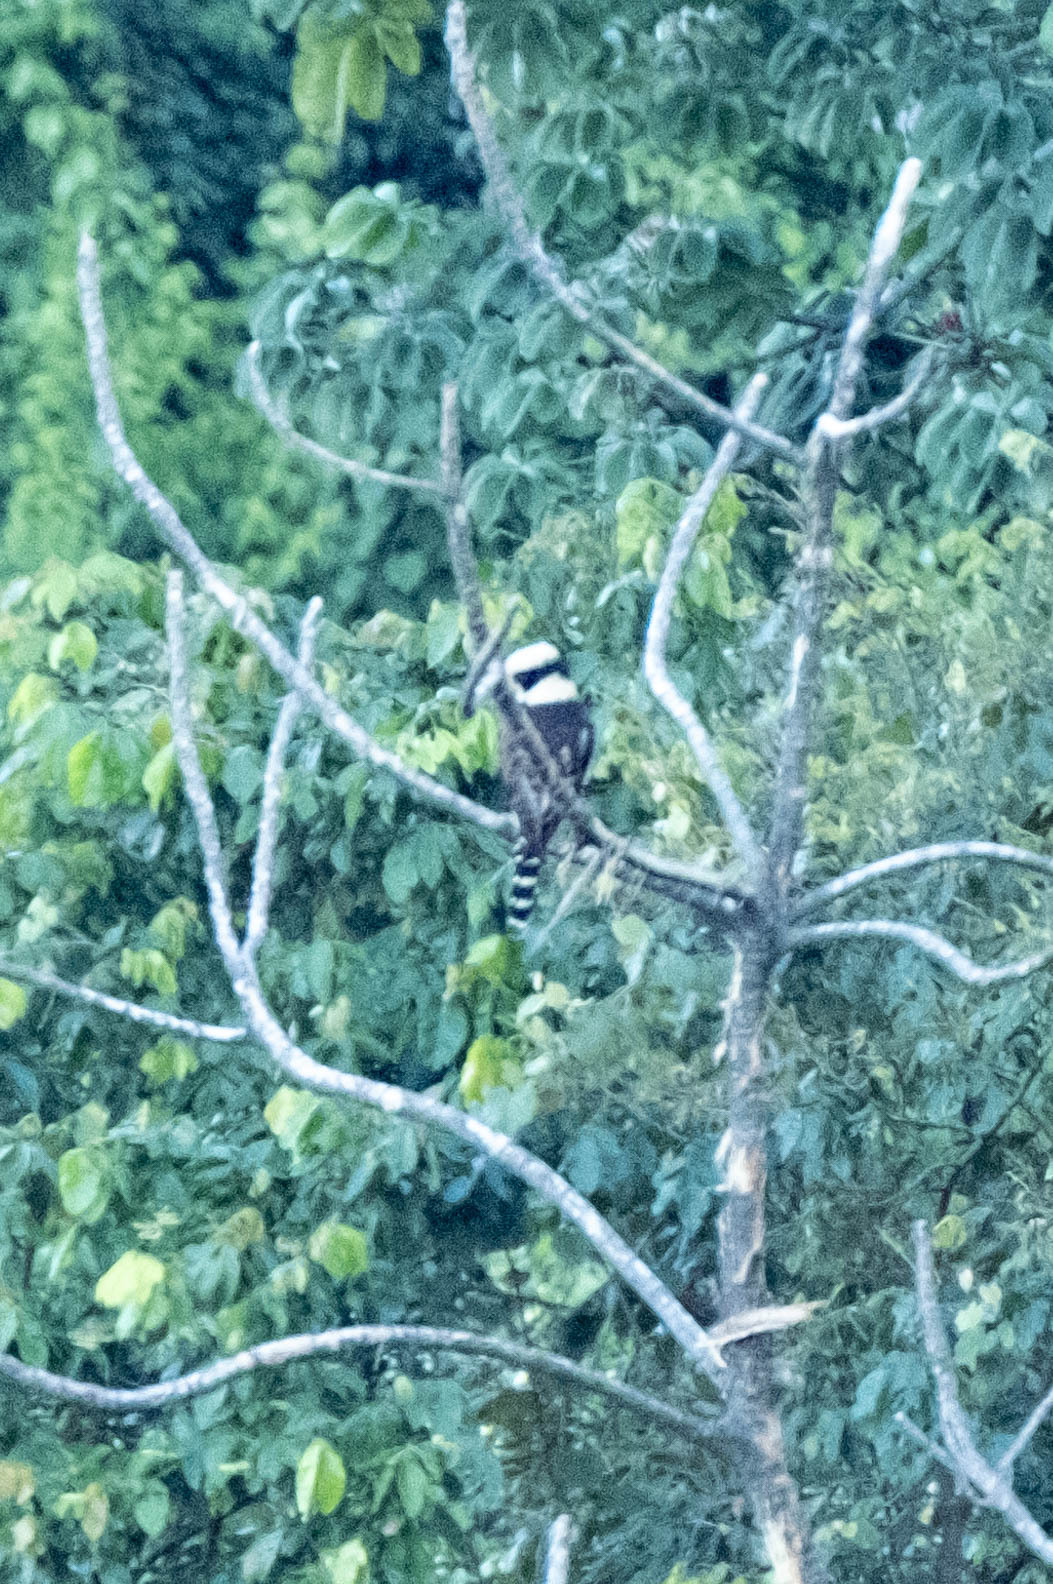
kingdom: Animalia
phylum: Chordata
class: Aves
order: Falconiformes
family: Falconidae
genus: Herpetotheres
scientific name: Herpetotheres cachinnans
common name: Laughing falcon
